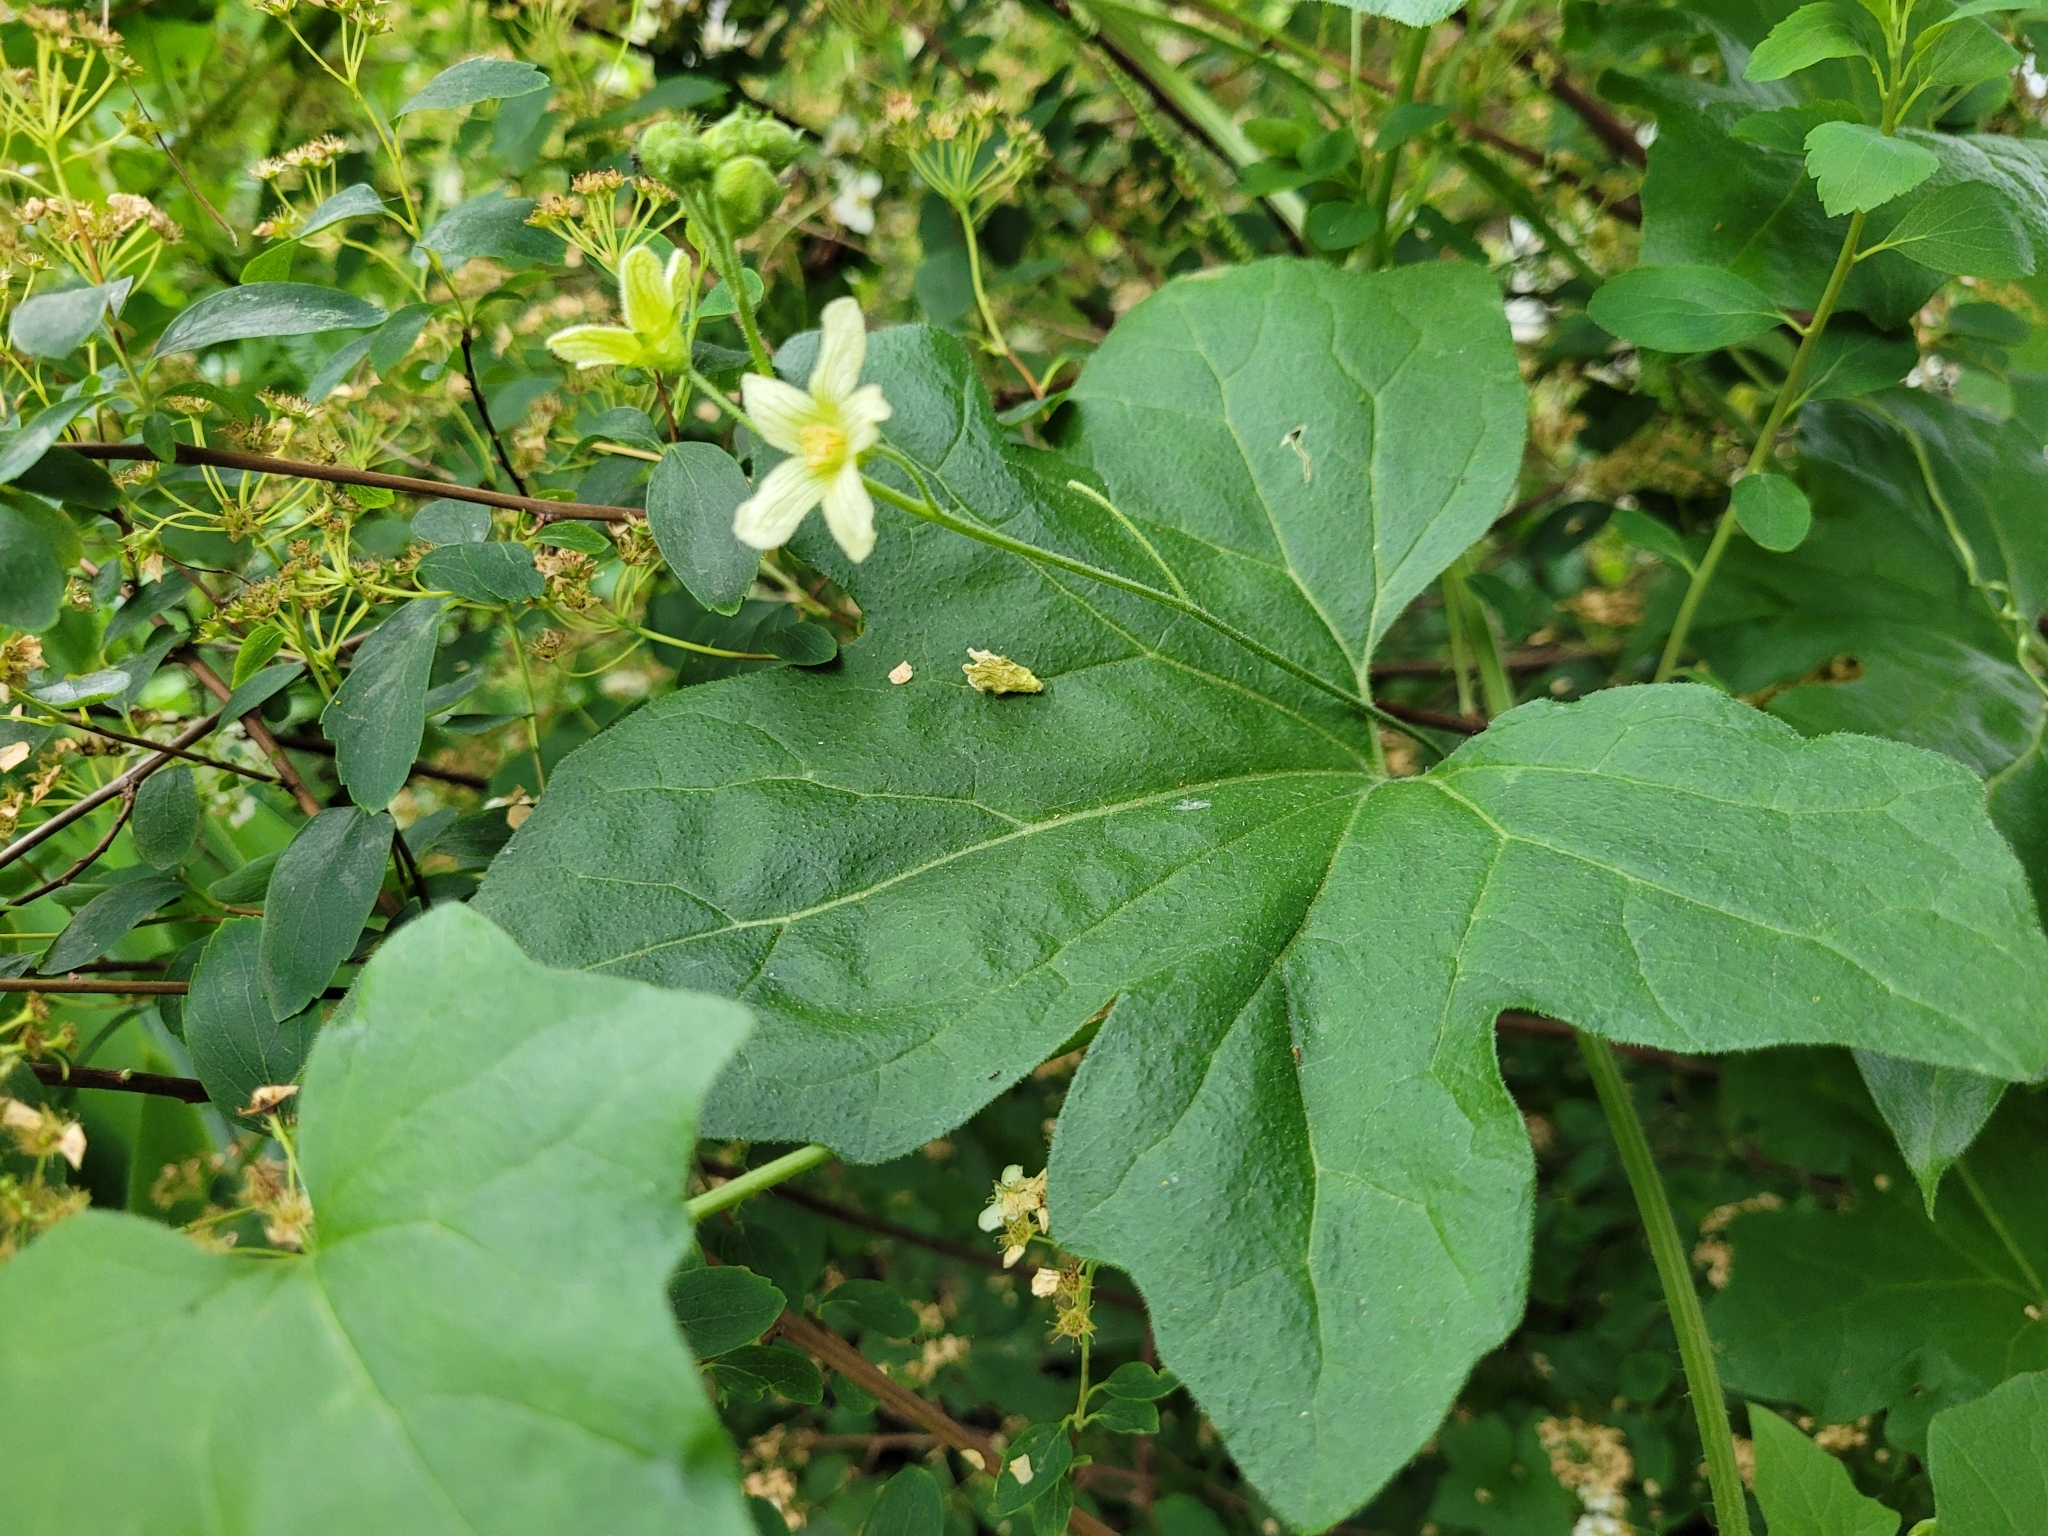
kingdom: Plantae
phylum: Tracheophyta
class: Magnoliopsida
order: Cucurbitales
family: Cucurbitaceae
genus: Bryonia
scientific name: Bryonia cretica
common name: Cretan bryony
